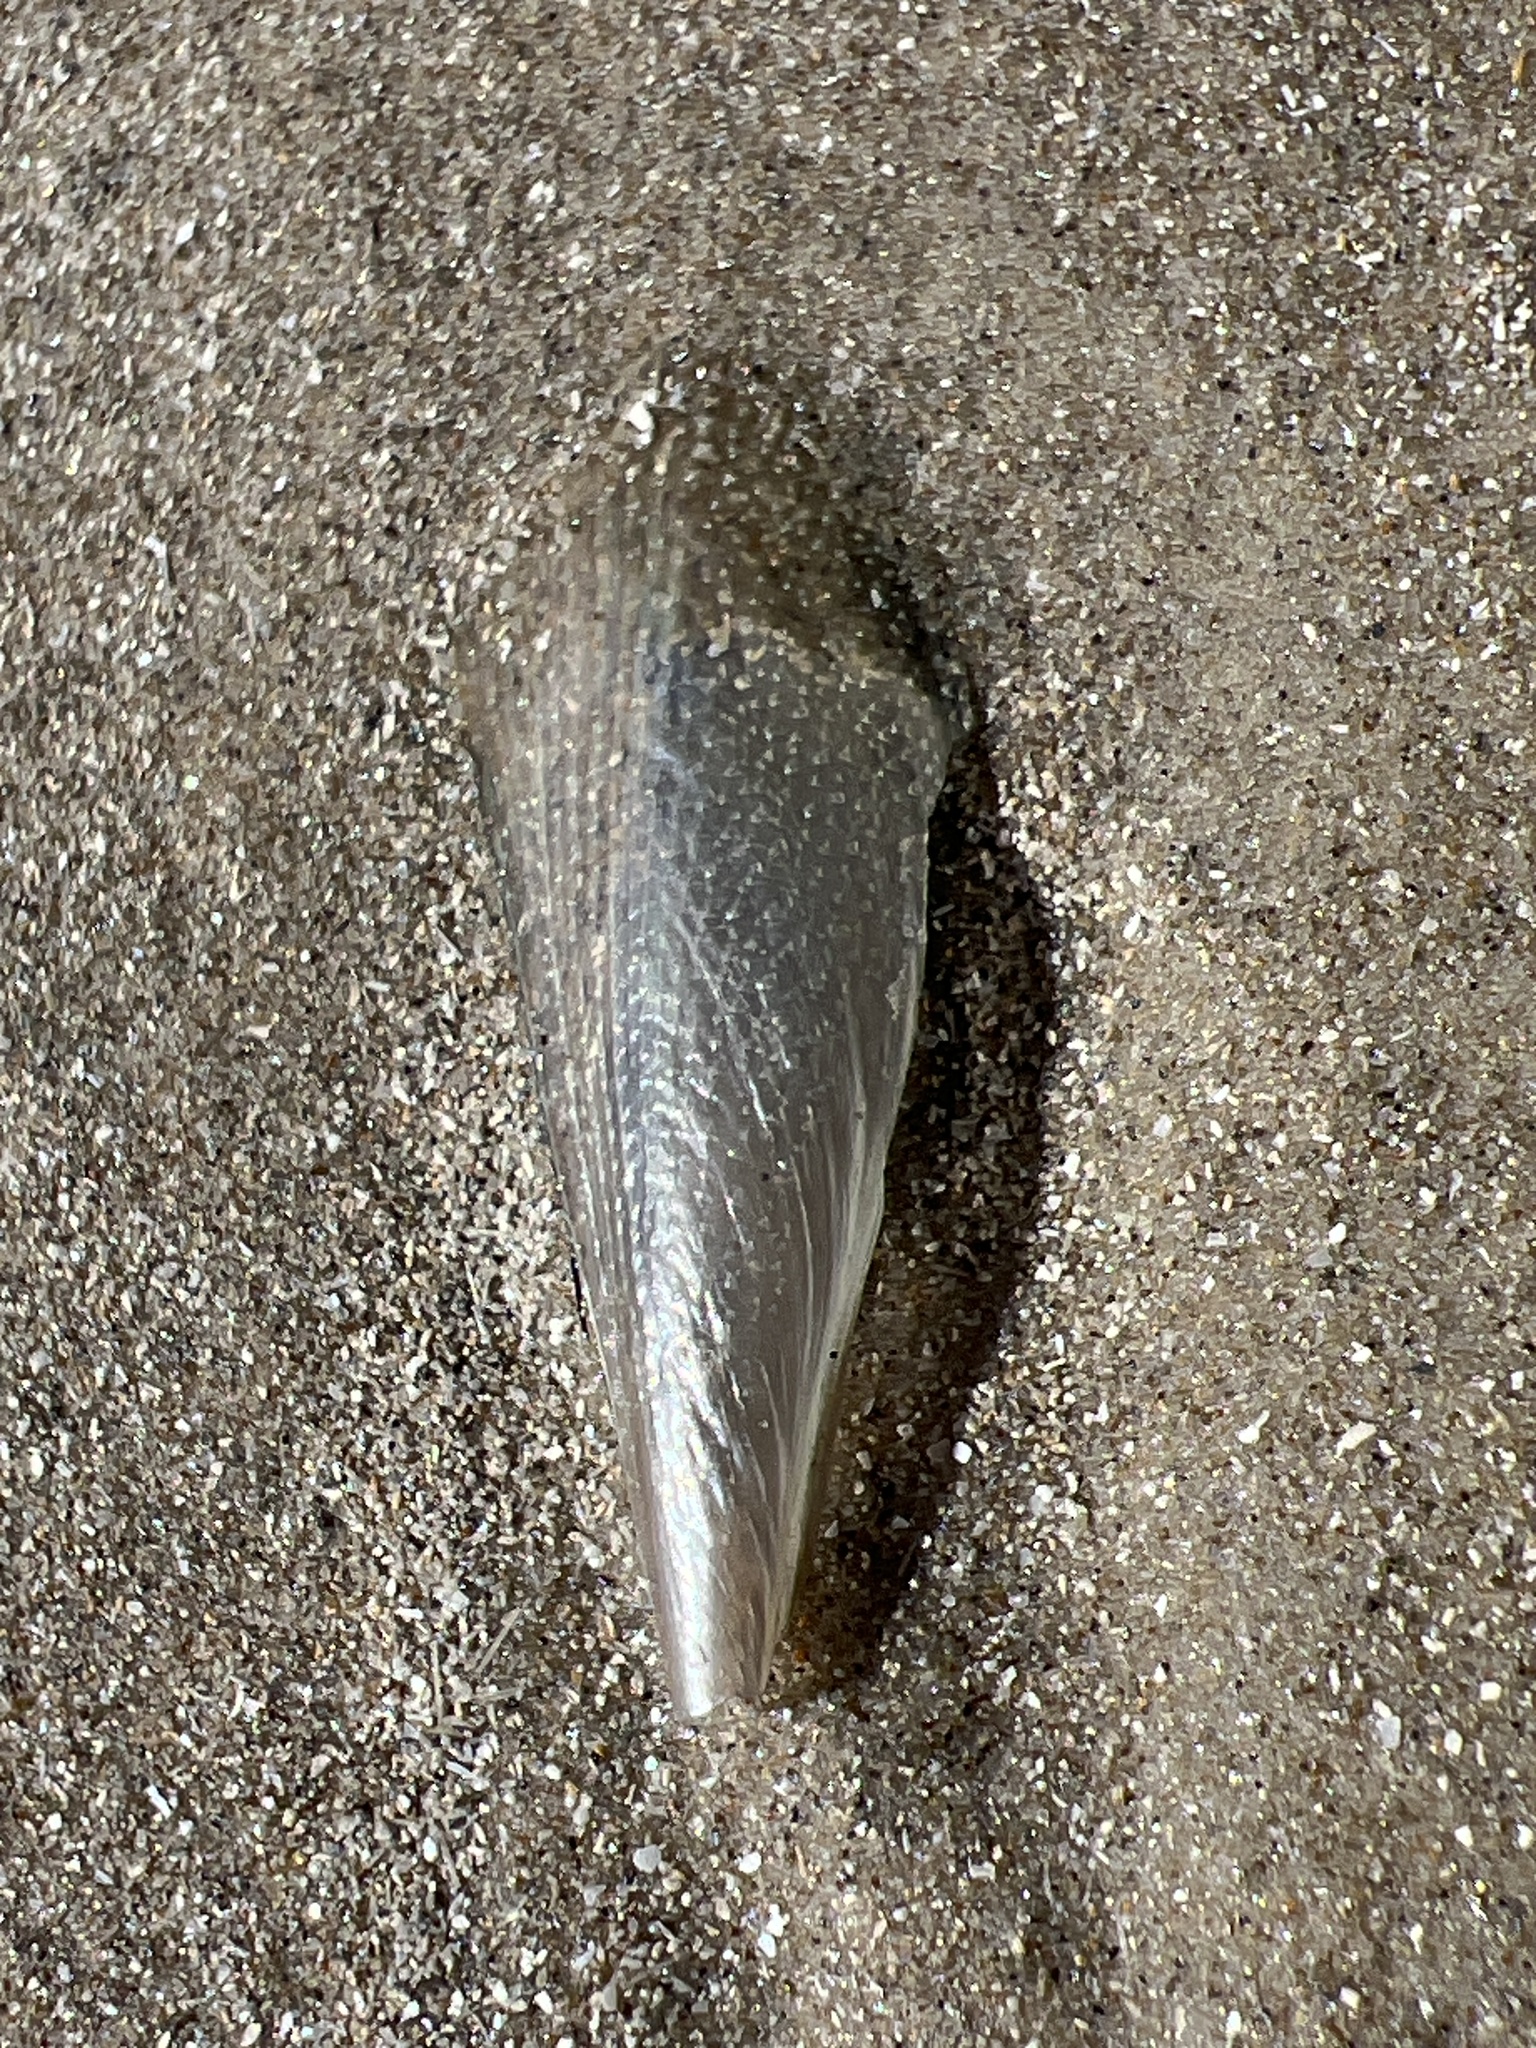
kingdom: Animalia
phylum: Mollusca
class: Bivalvia
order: Ostreida
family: Pinnidae
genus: Atrina
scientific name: Atrina serrata
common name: Saw-toothed penshell
